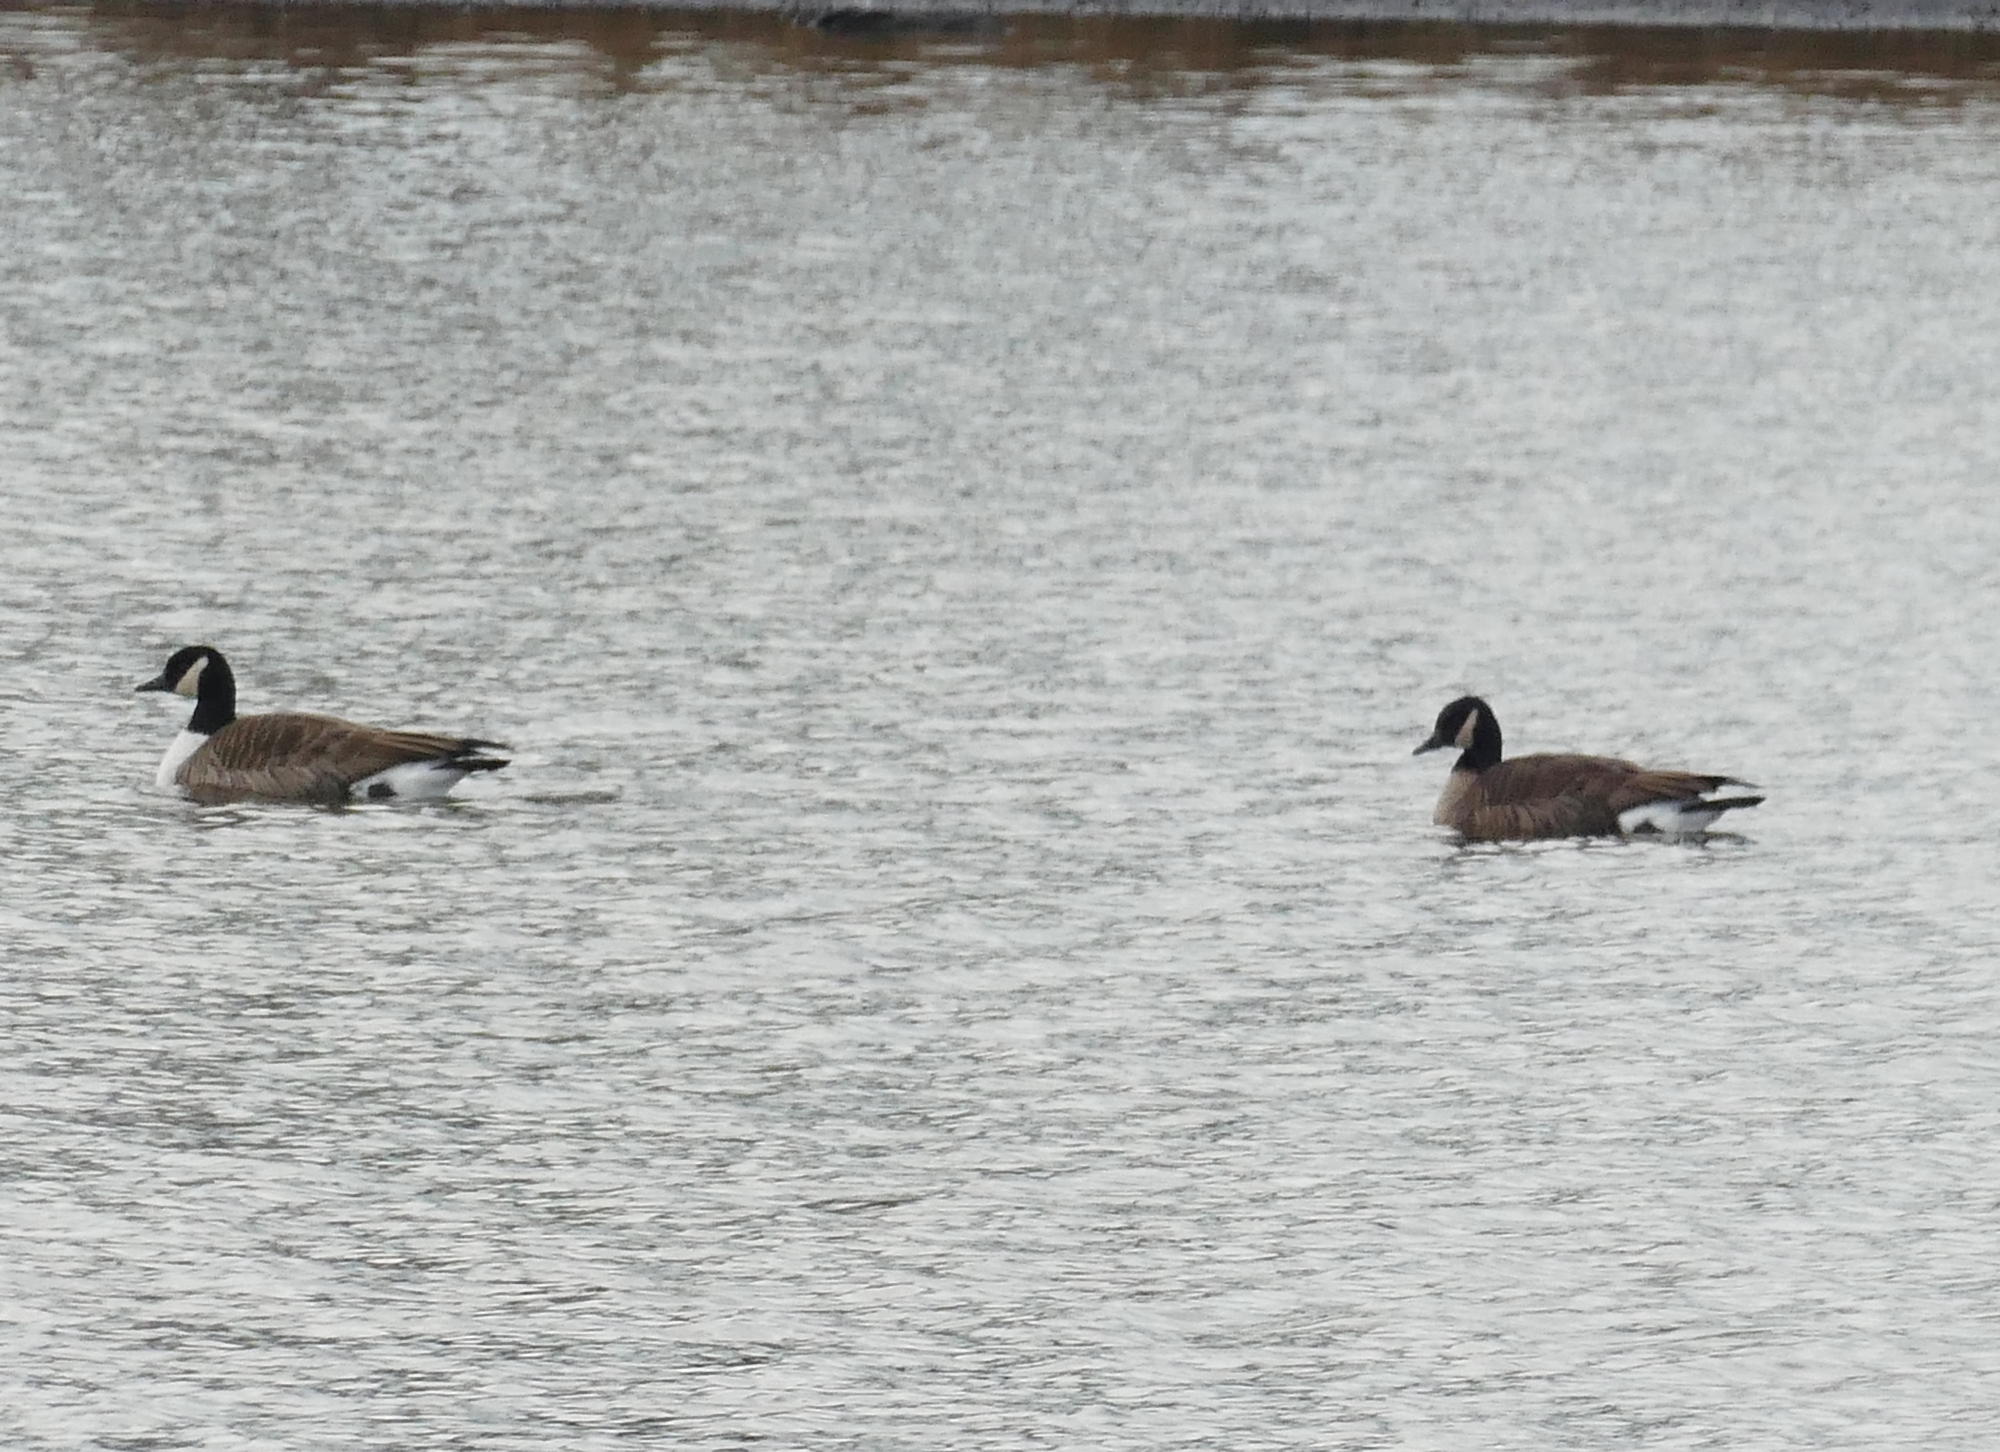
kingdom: Animalia
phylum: Chordata
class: Aves
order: Anseriformes
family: Anatidae
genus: Branta
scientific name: Branta canadensis
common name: Canada goose
